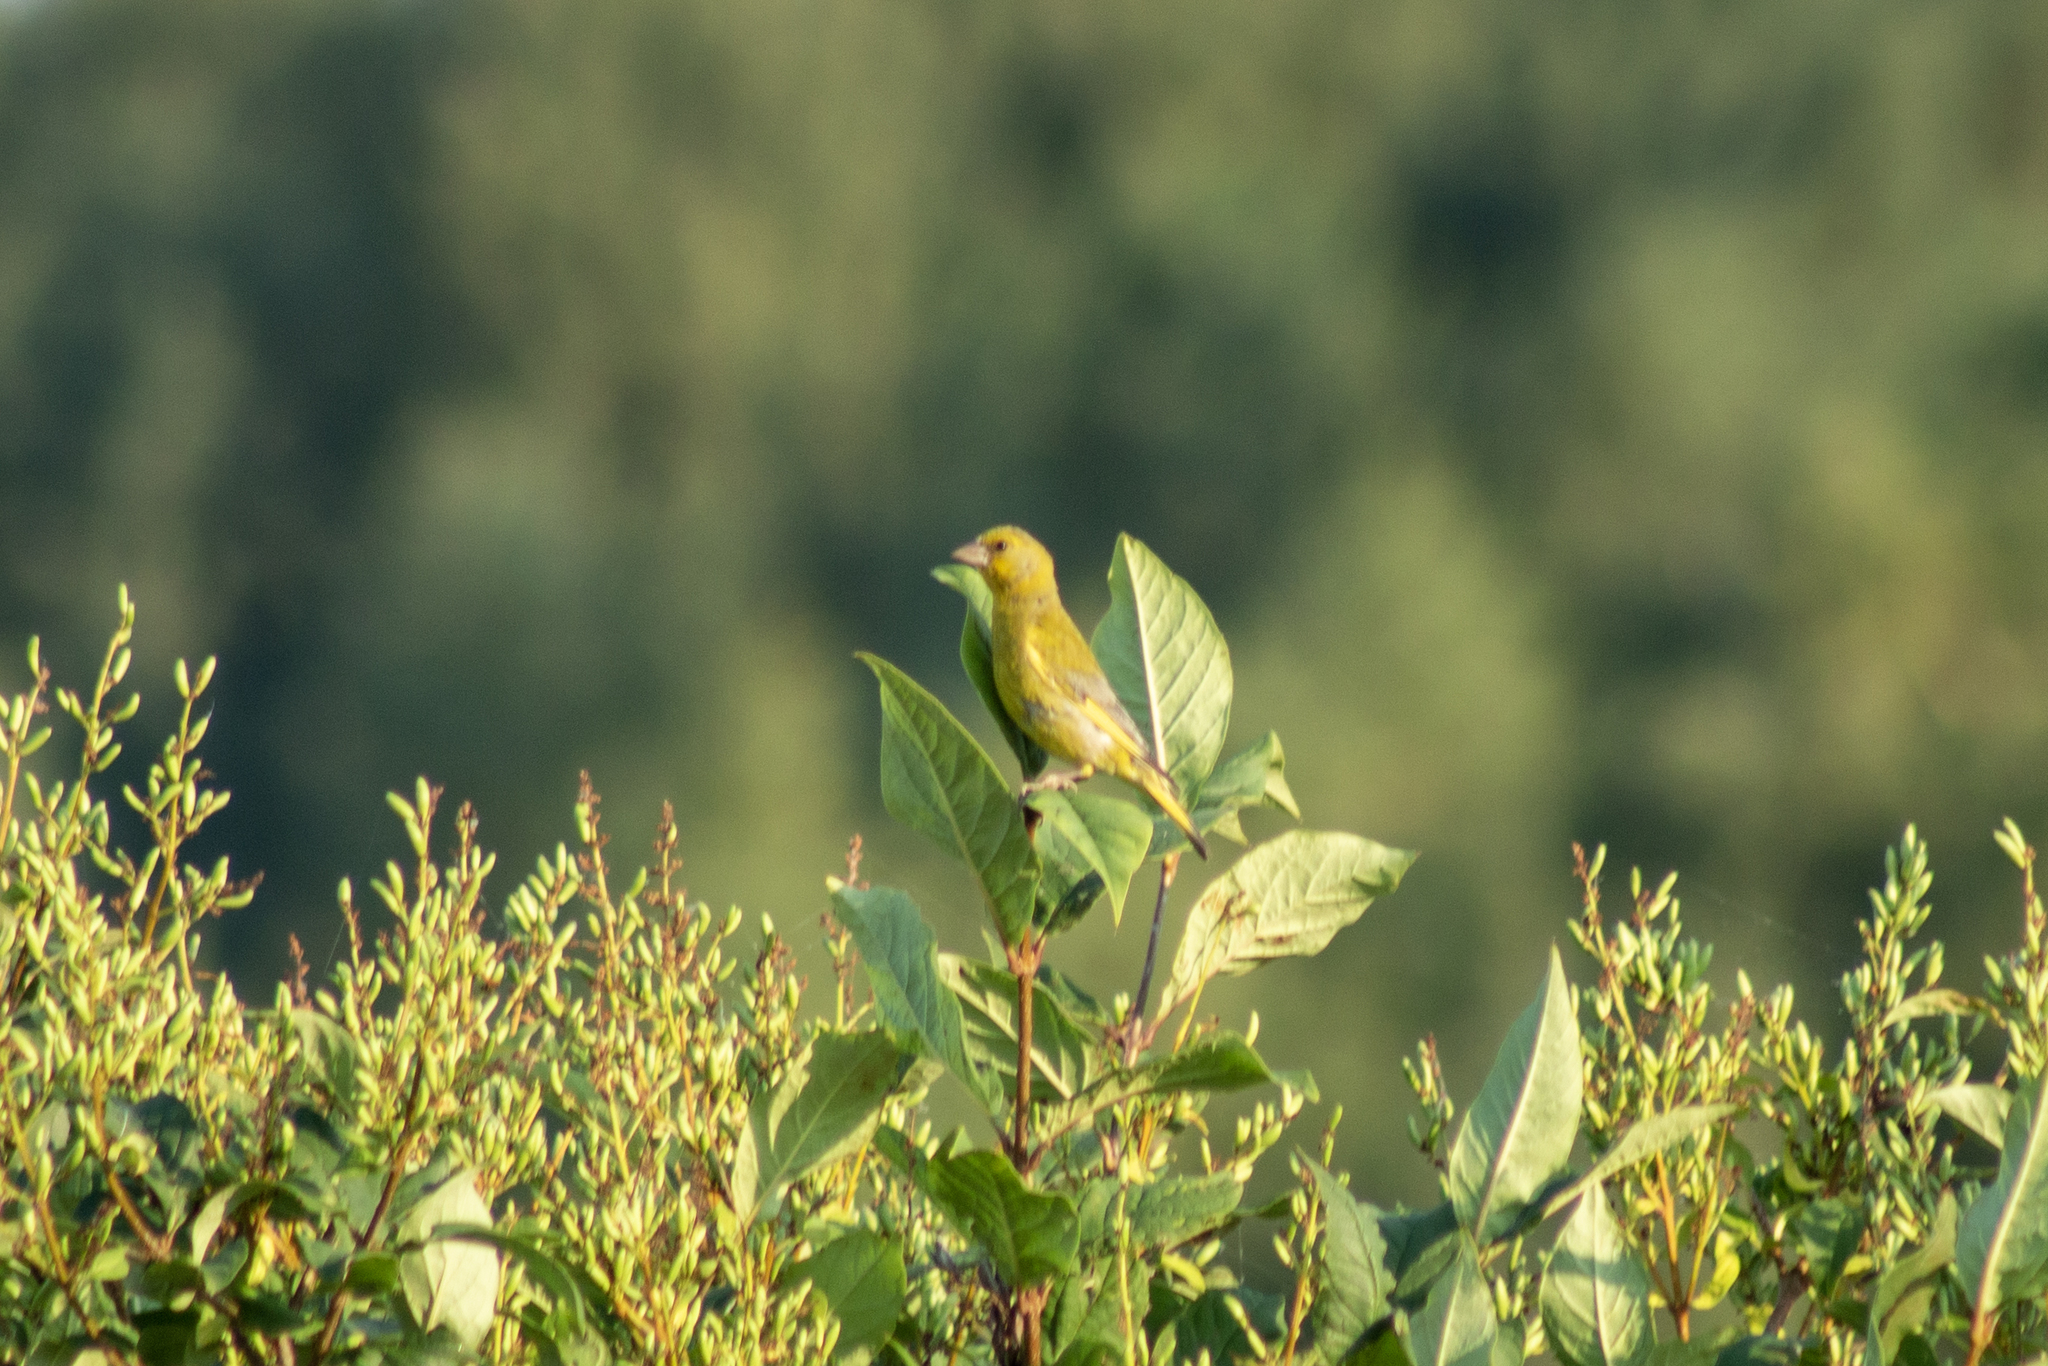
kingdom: Plantae
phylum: Tracheophyta
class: Liliopsida
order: Poales
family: Poaceae
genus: Chloris
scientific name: Chloris chloris
